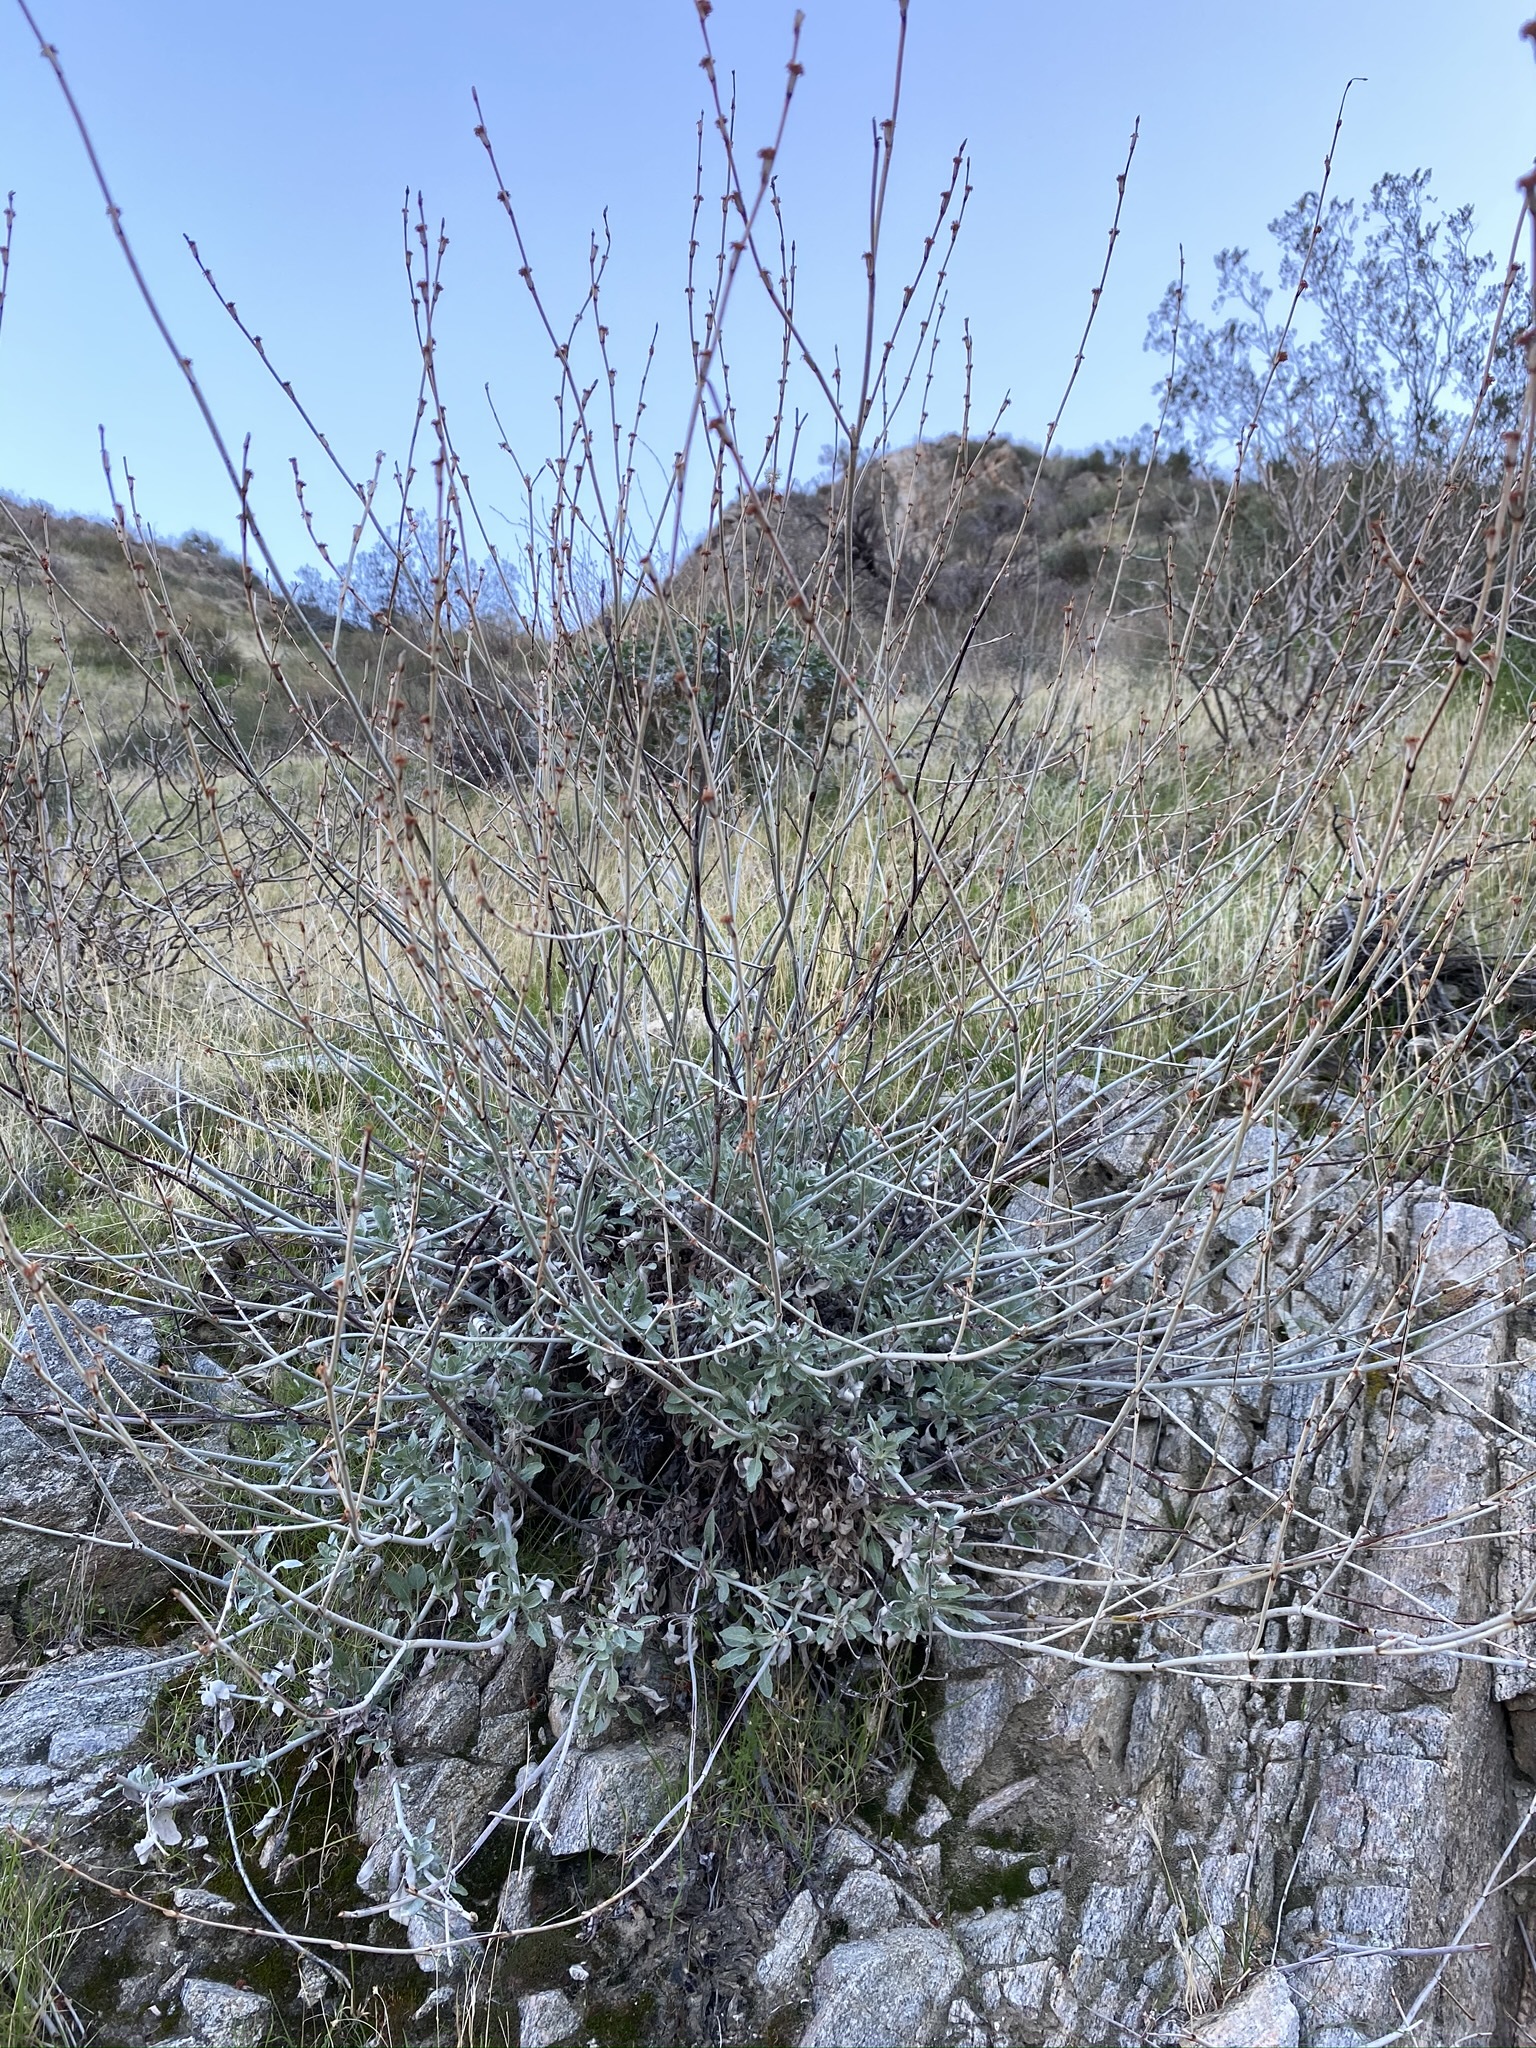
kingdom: Plantae
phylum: Tracheophyta
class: Magnoliopsida
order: Caryophyllales
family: Polygonaceae
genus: Eriogonum
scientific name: Eriogonum elongatum
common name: Long-stem wild buckwheat
